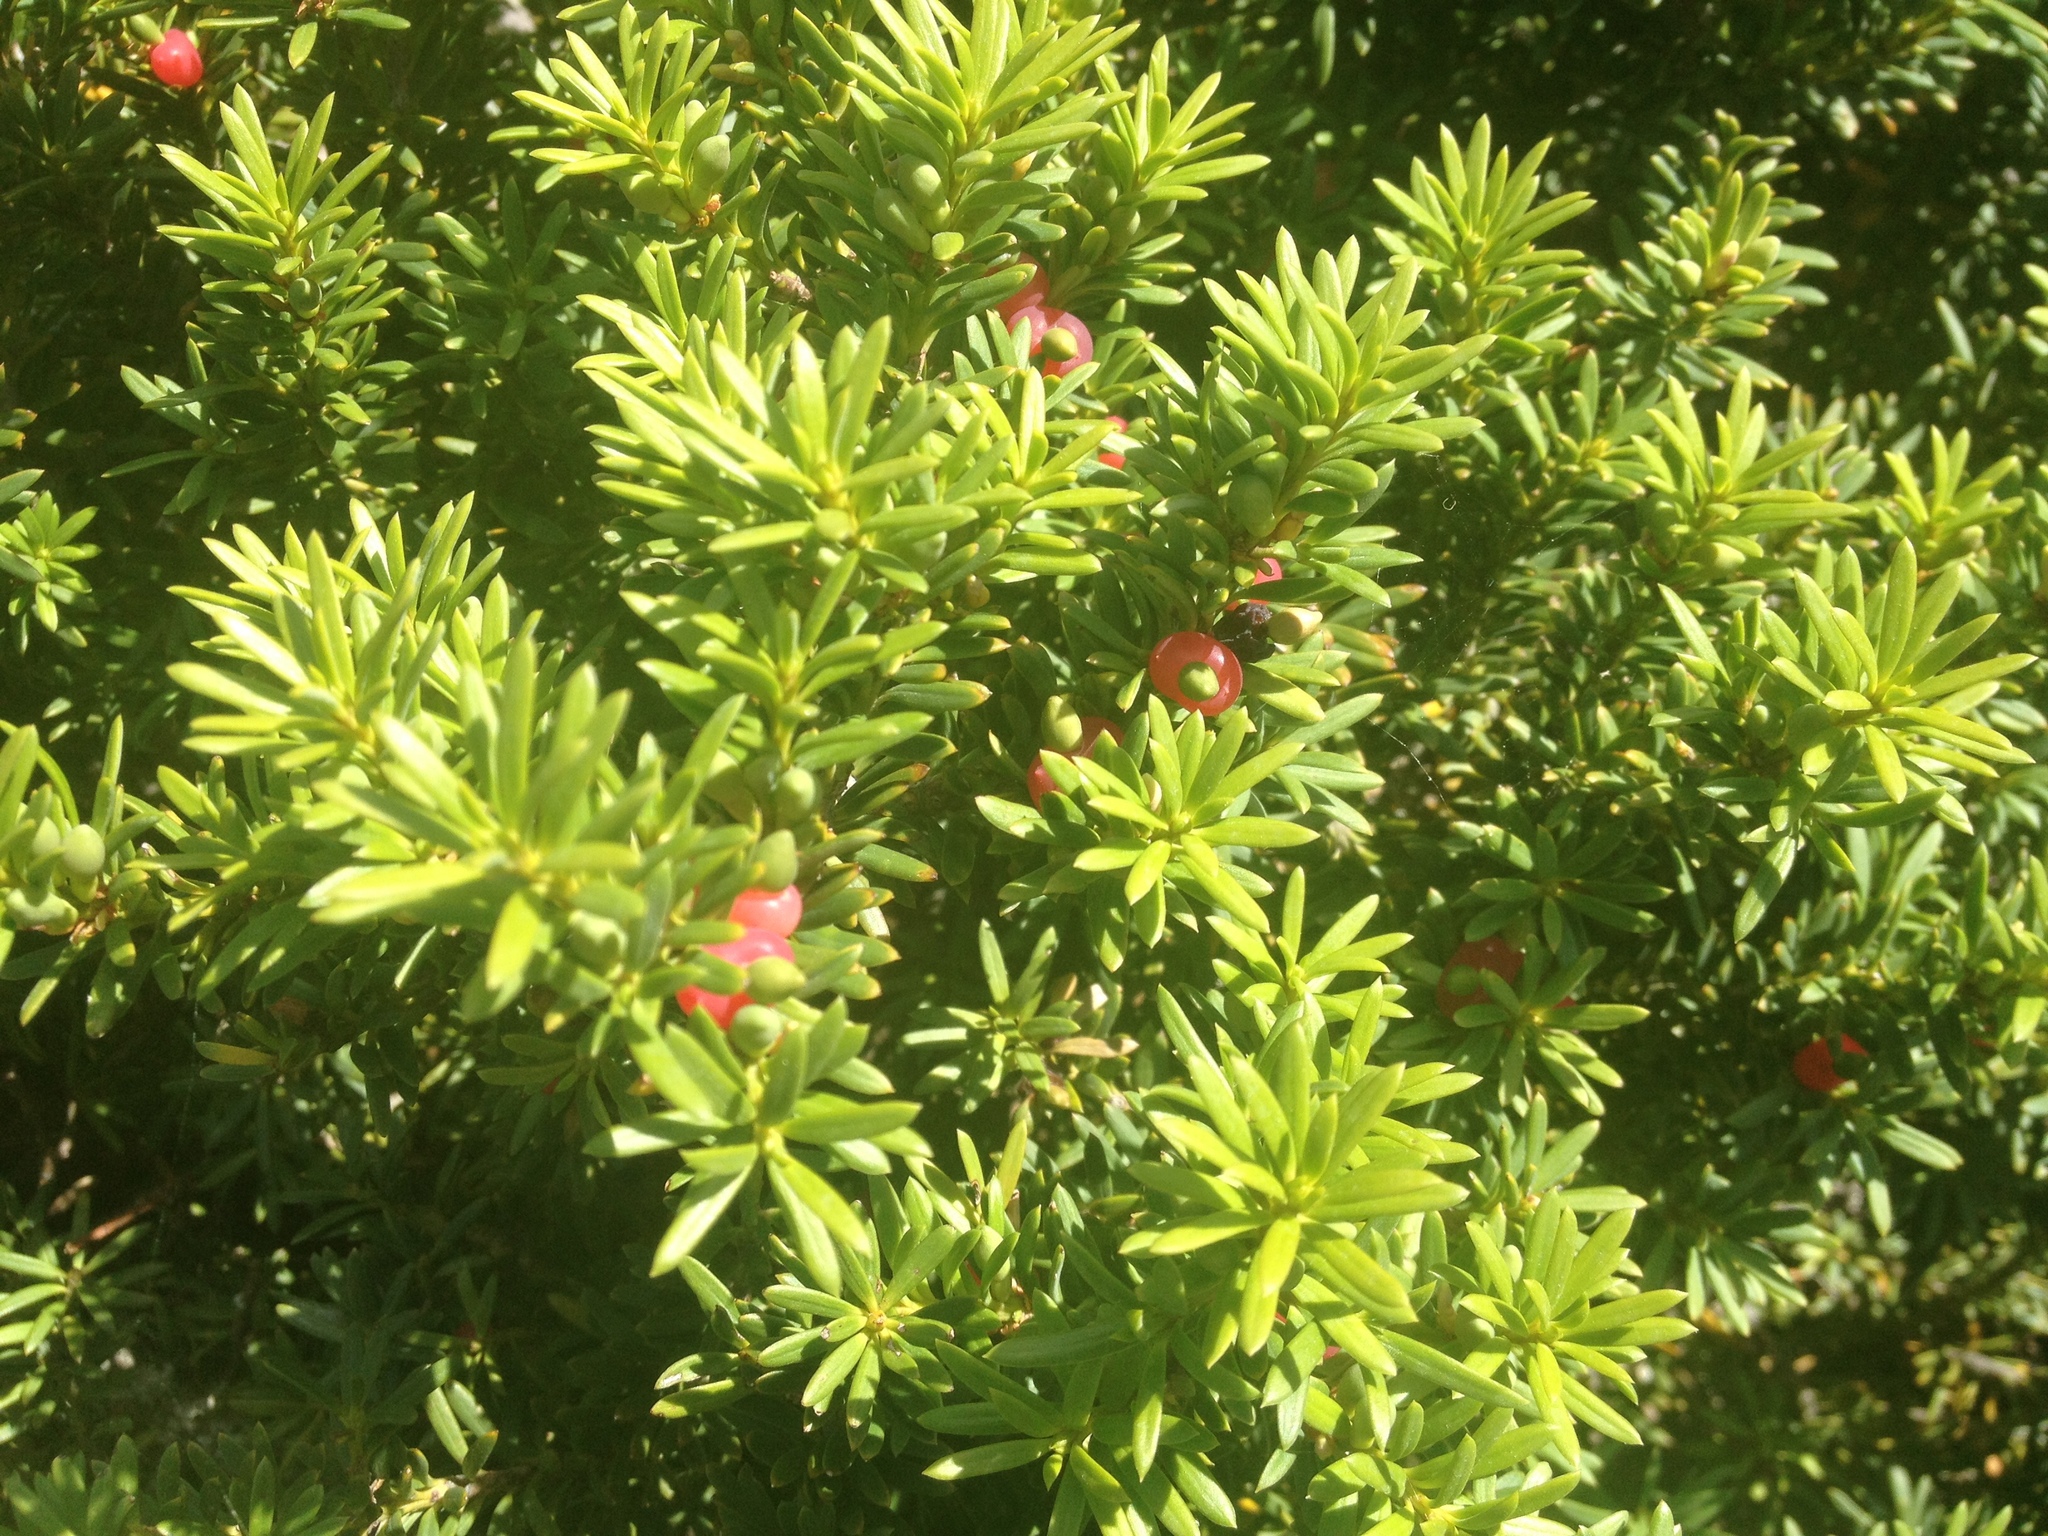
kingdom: Plantae
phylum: Tracheophyta
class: Pinopsida
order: Pinales
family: Podocarpaceae
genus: Podocarpus
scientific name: Podocarpus nivalis
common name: Alpine totara
